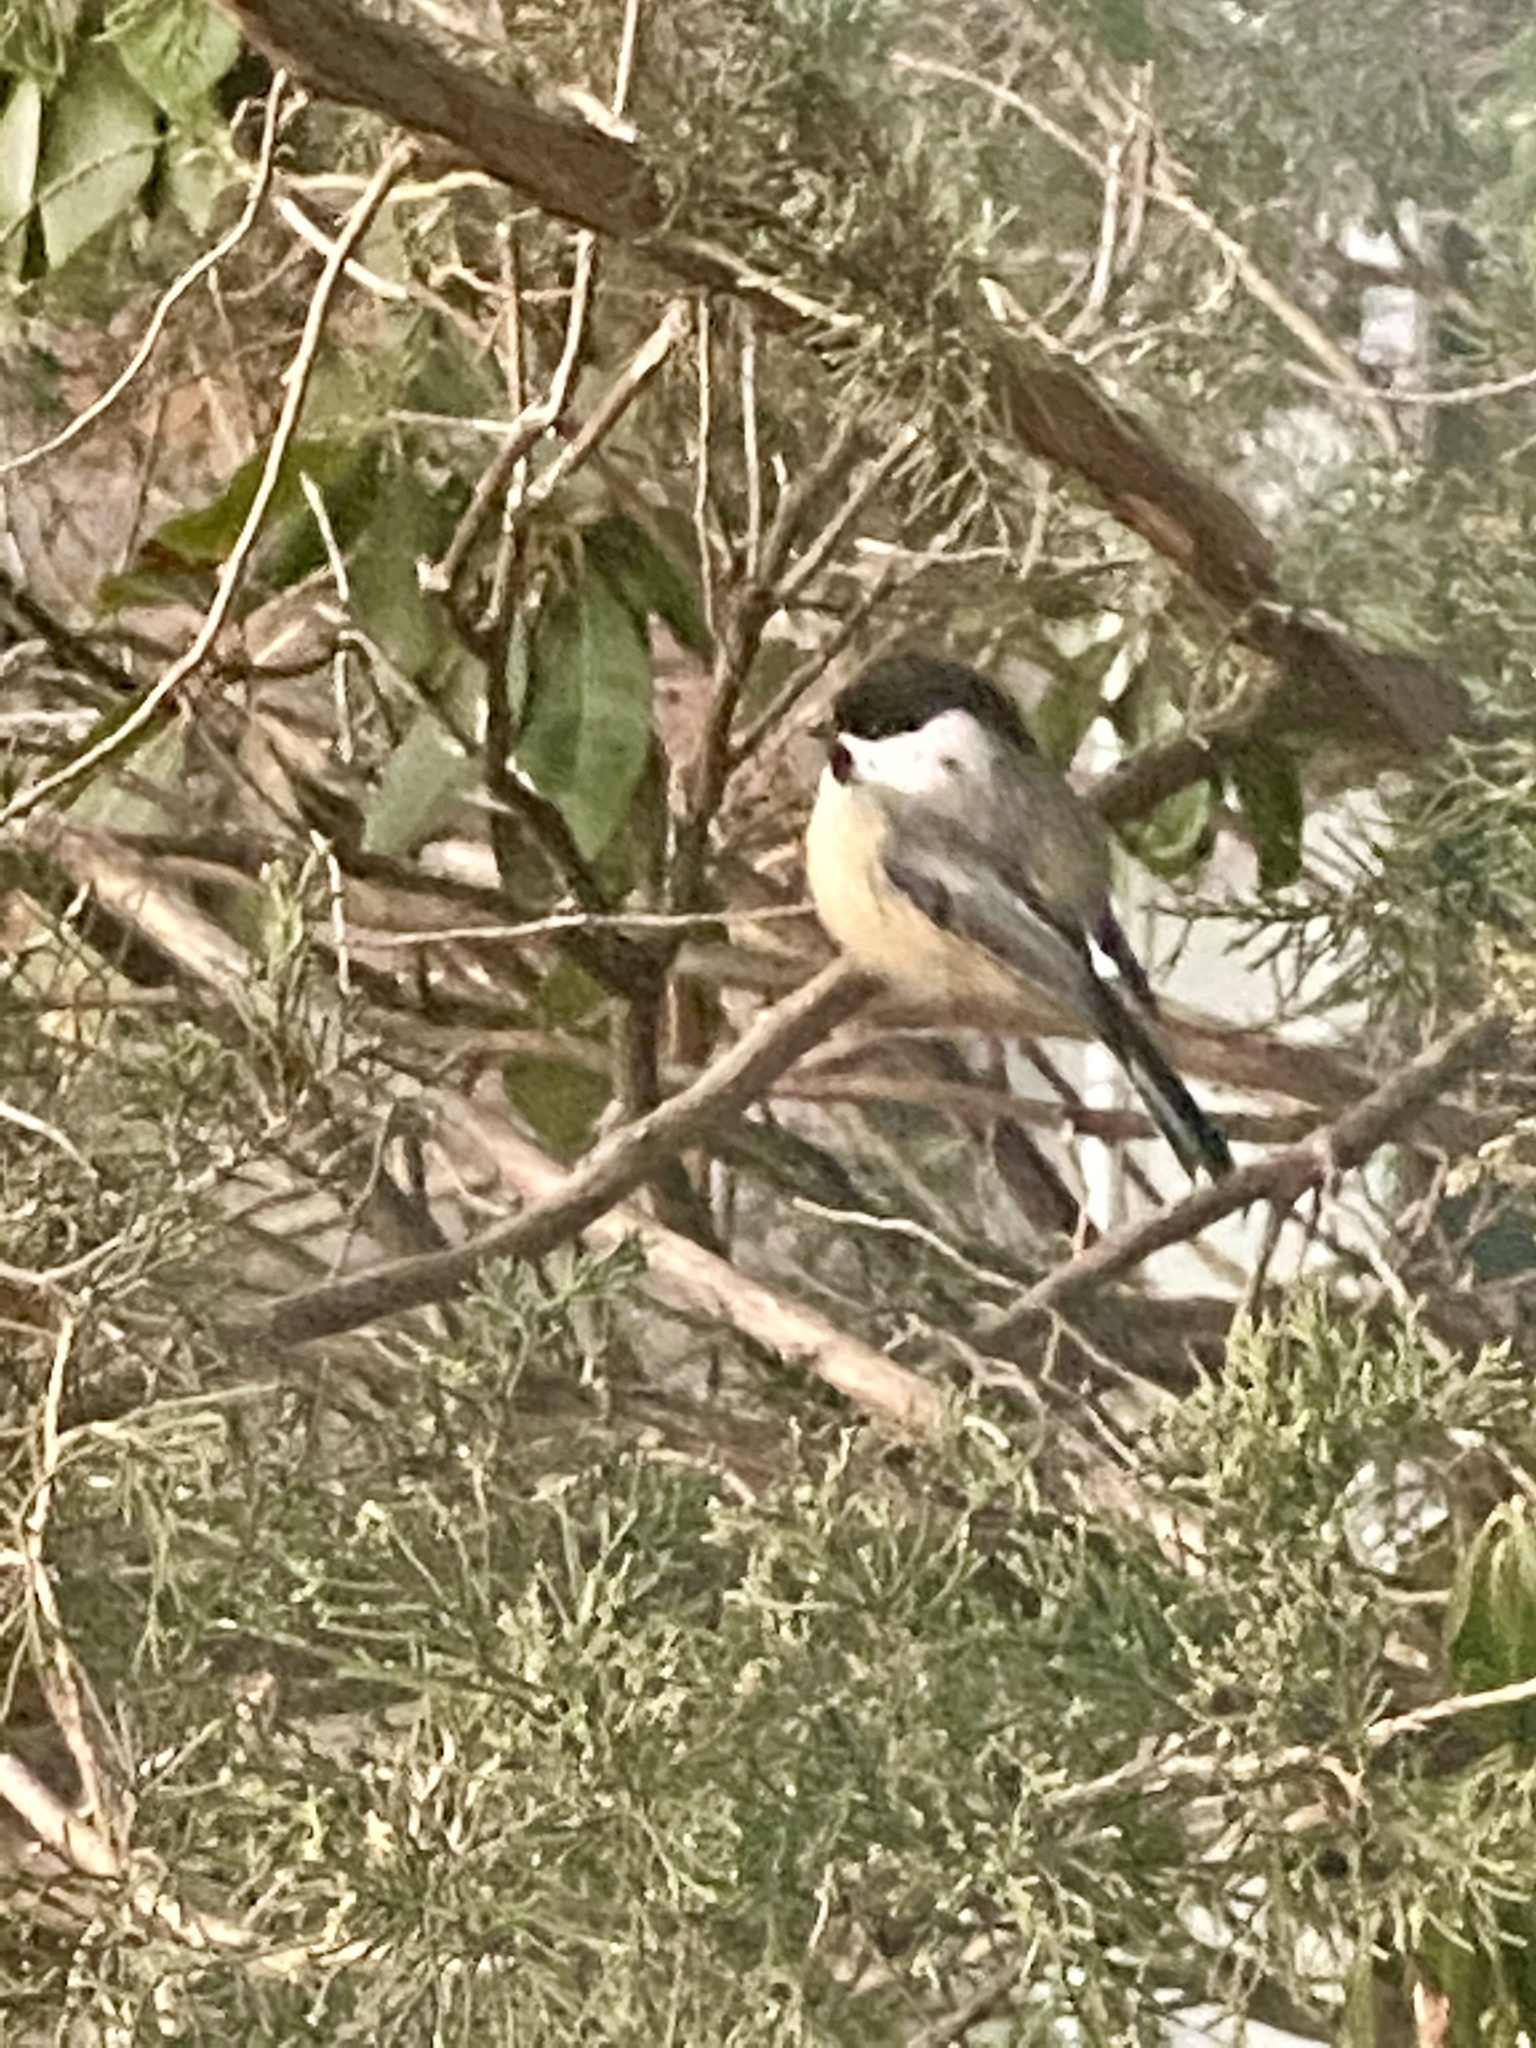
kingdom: Animalia
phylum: Chordata
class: Aves
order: Passeriformes
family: Paridae
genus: Poecile
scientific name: Poecile atricapillus
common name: Black-capped chickadee
